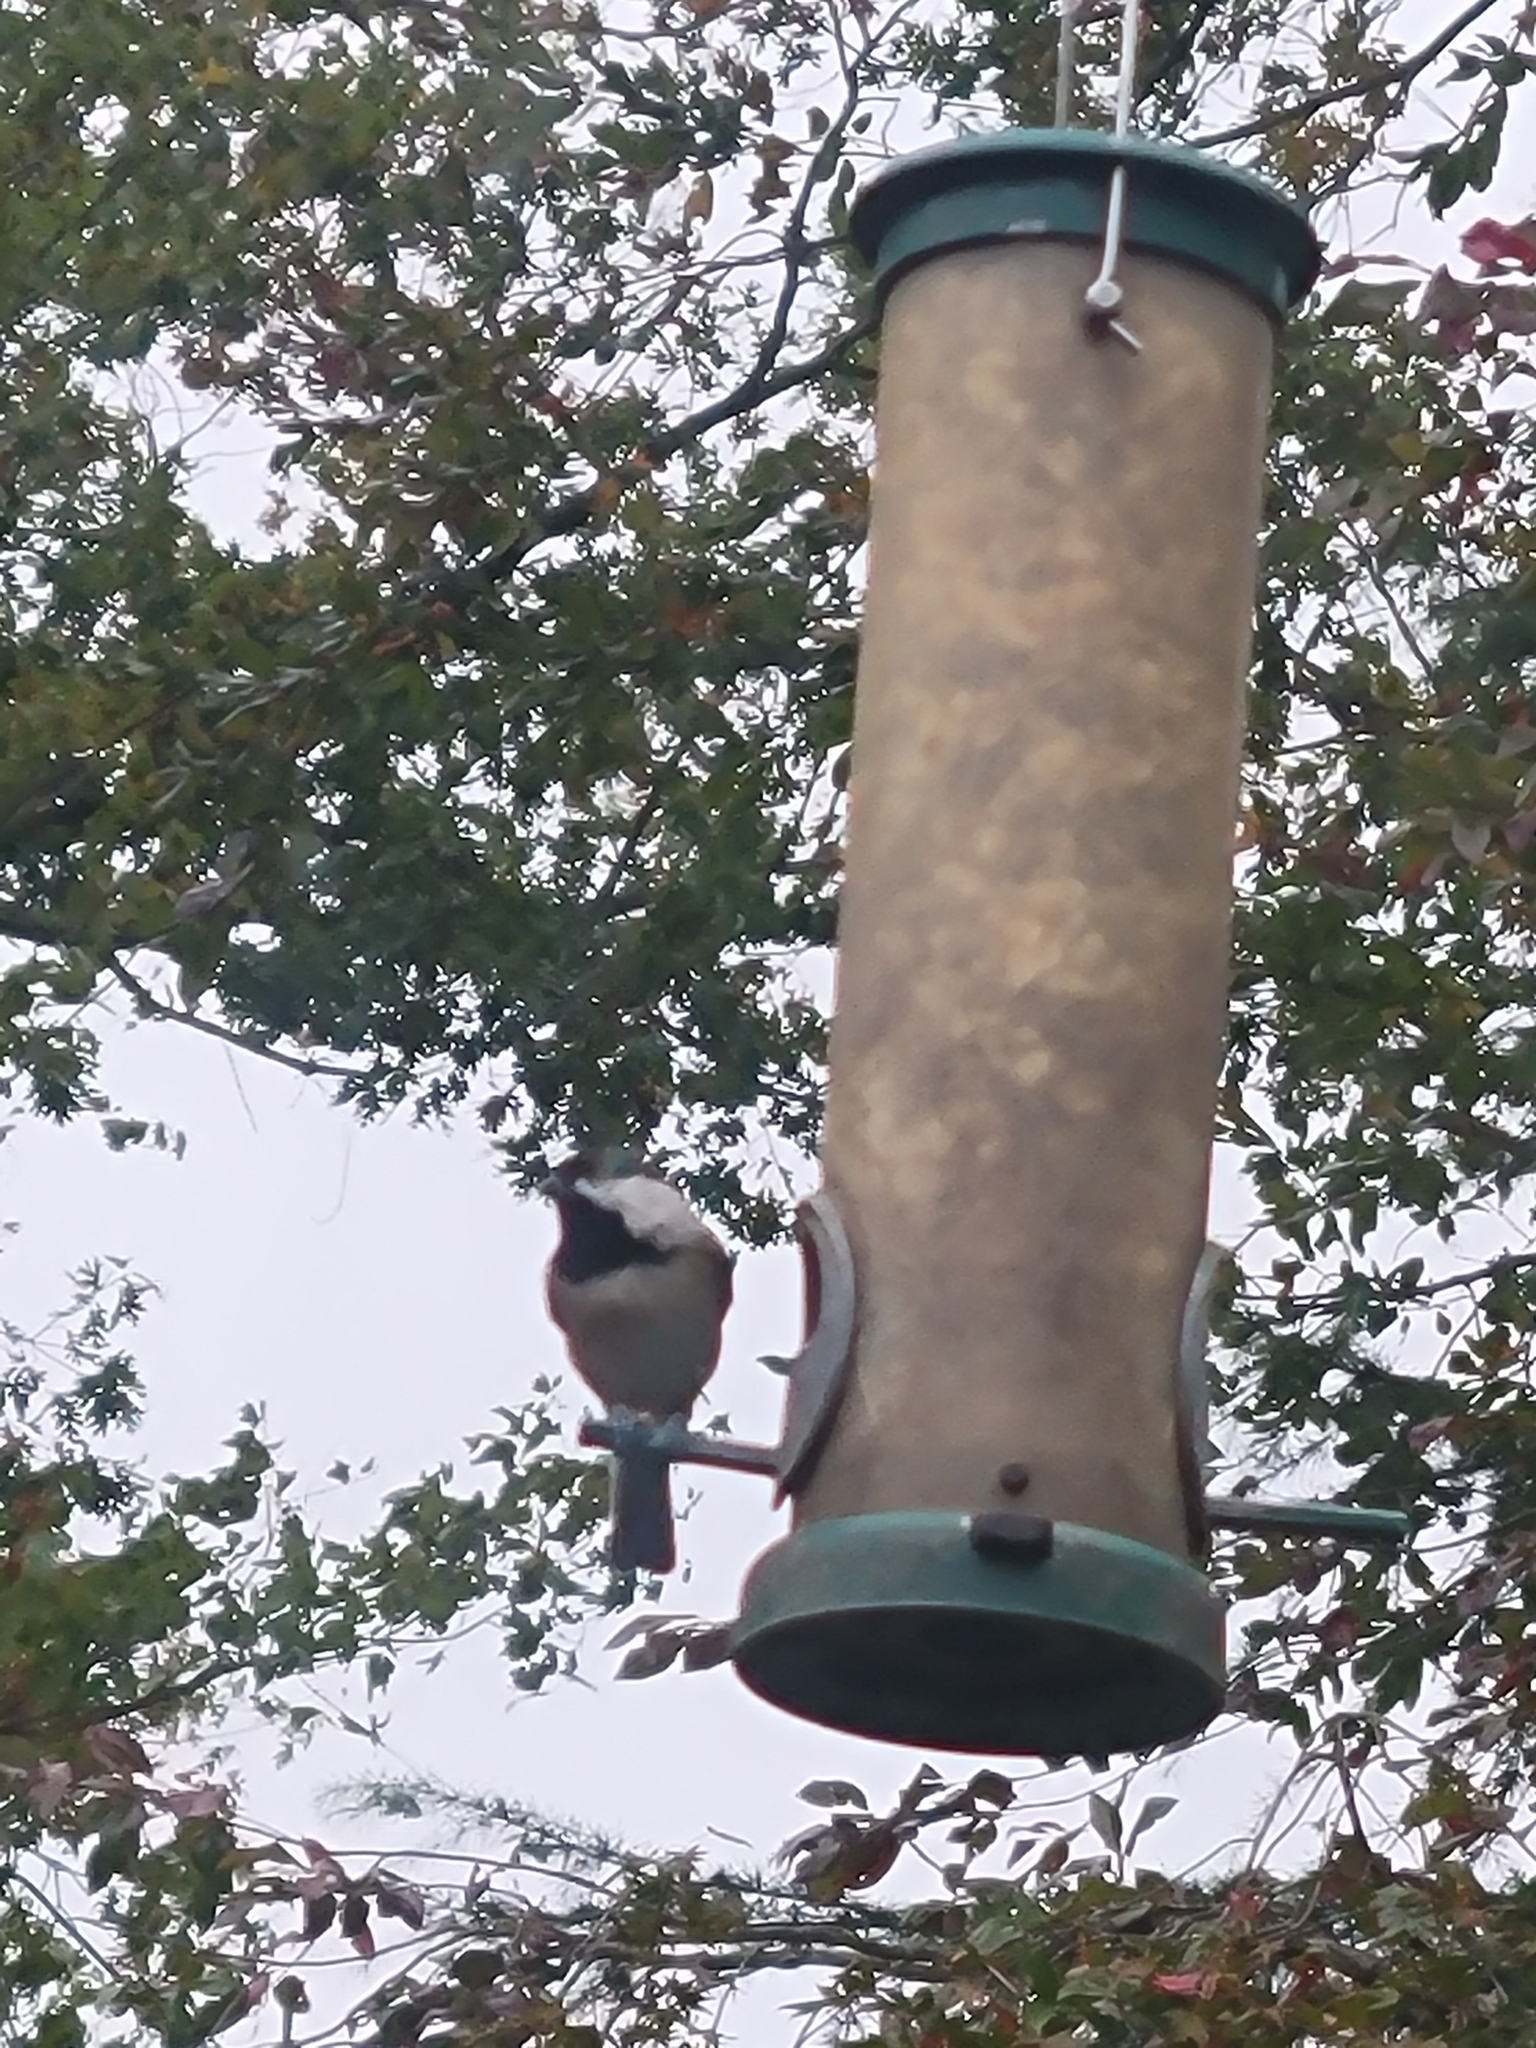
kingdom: Animalia
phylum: Chordata
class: Aves
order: Passeriformes
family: Paridae
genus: Poecile
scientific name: Poecile carolinensis
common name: Carolina chickadee
